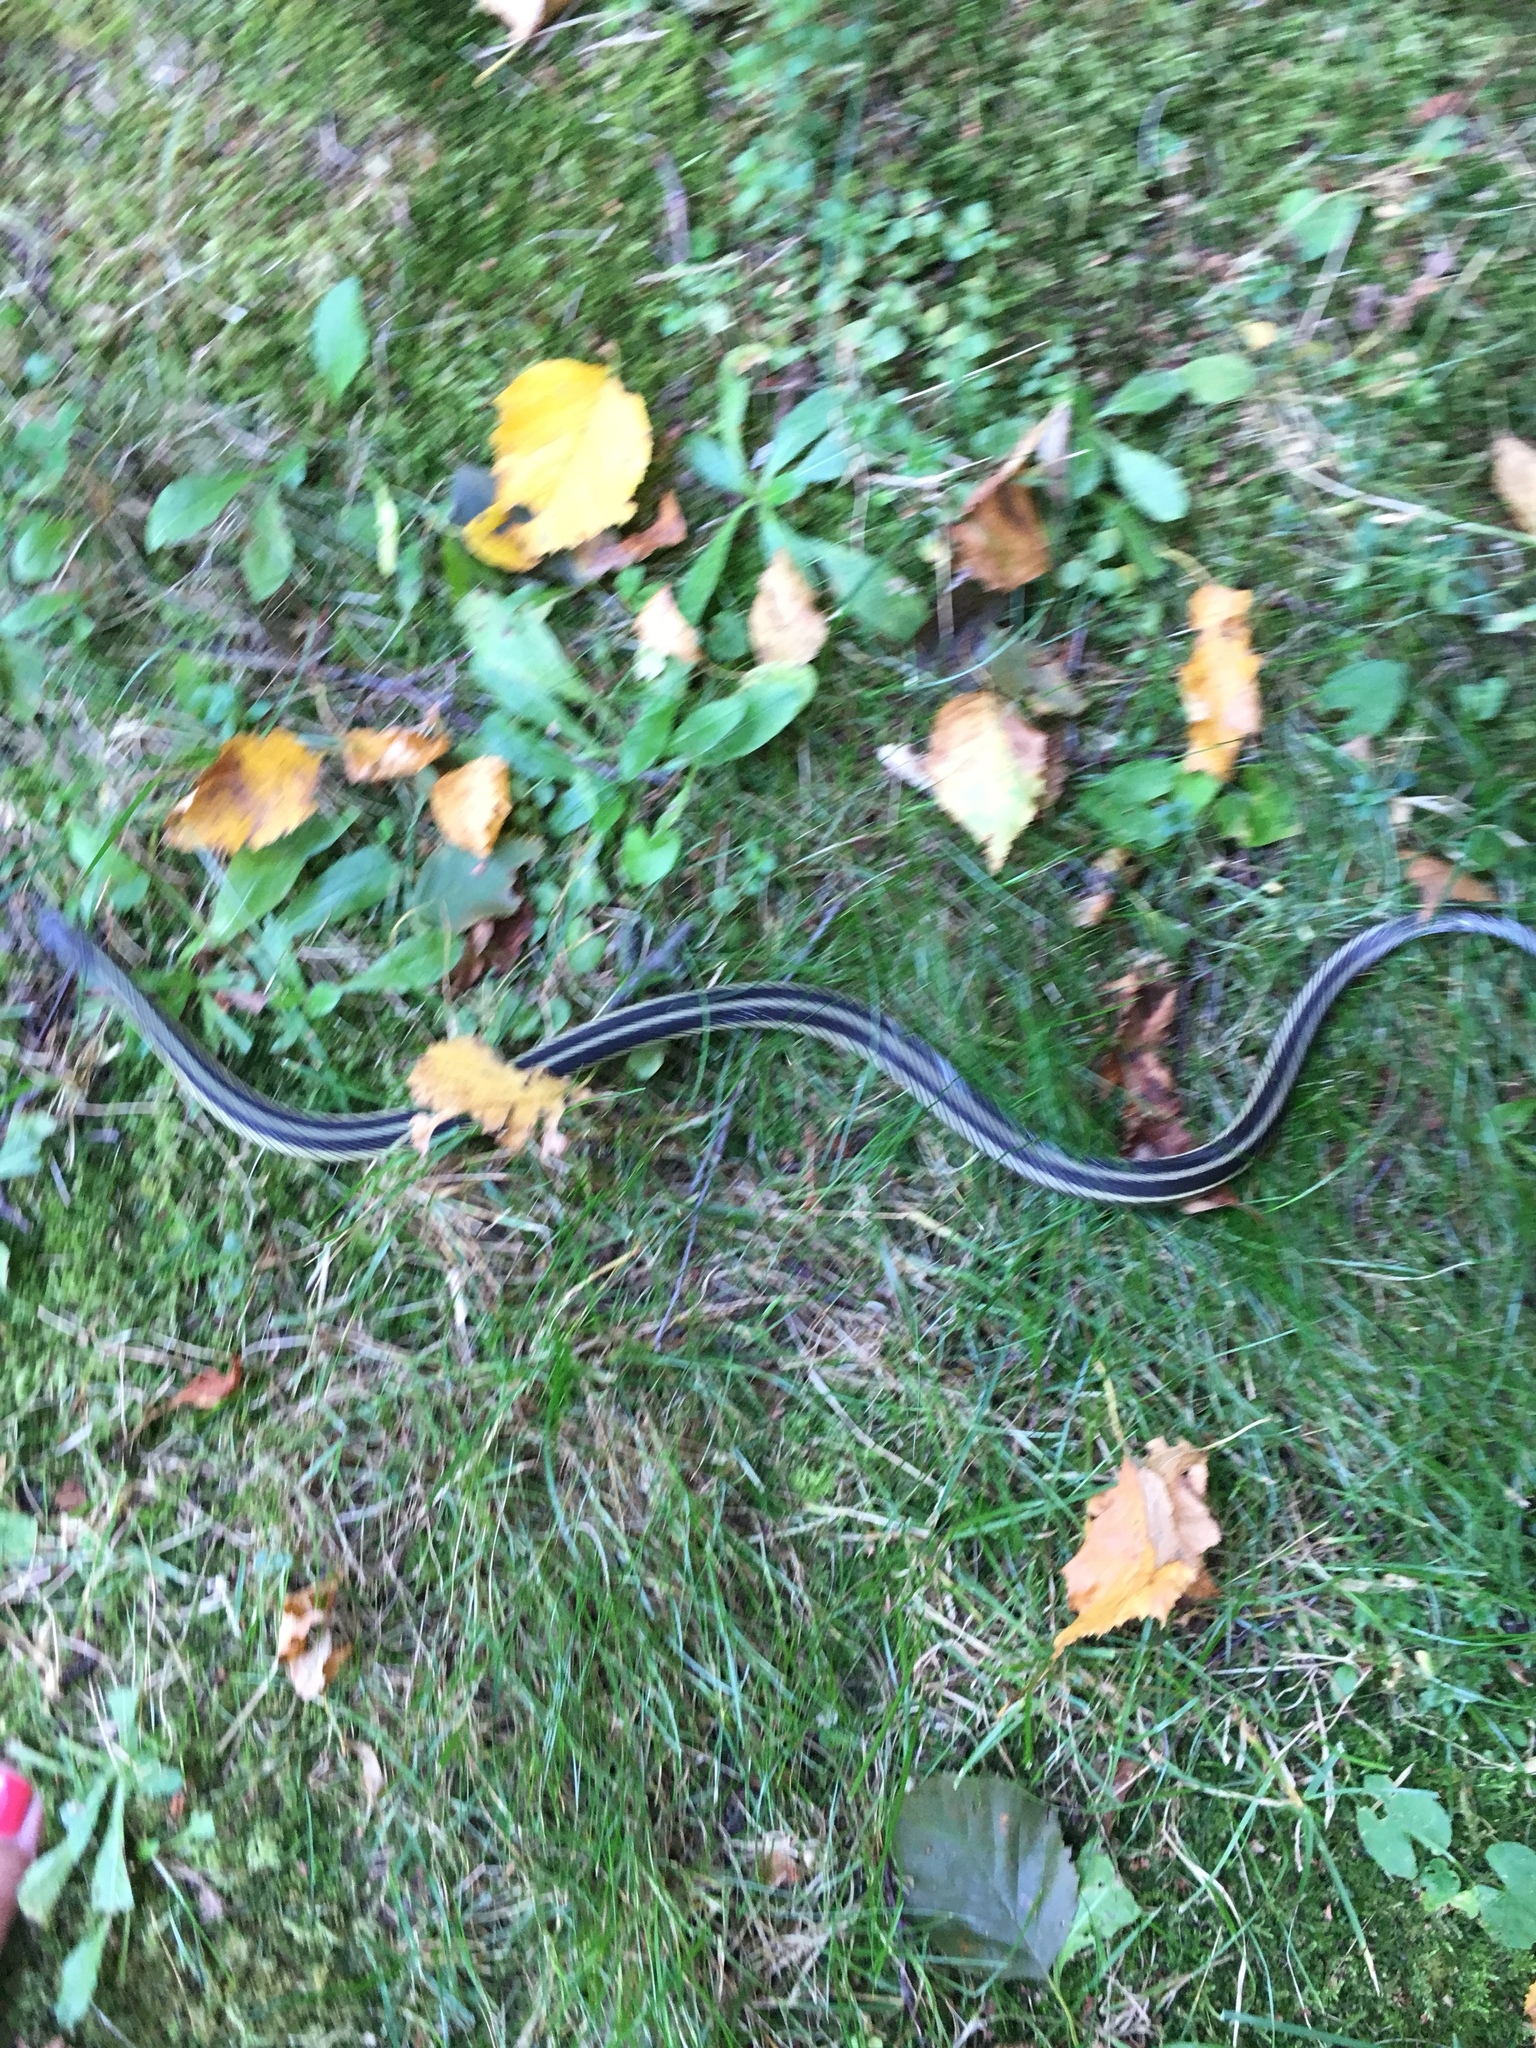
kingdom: Animalia
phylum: Chordata
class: Squamata
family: Colubridae
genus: Thamnophis
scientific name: Thamnophis sirtalis
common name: Common garter snake
